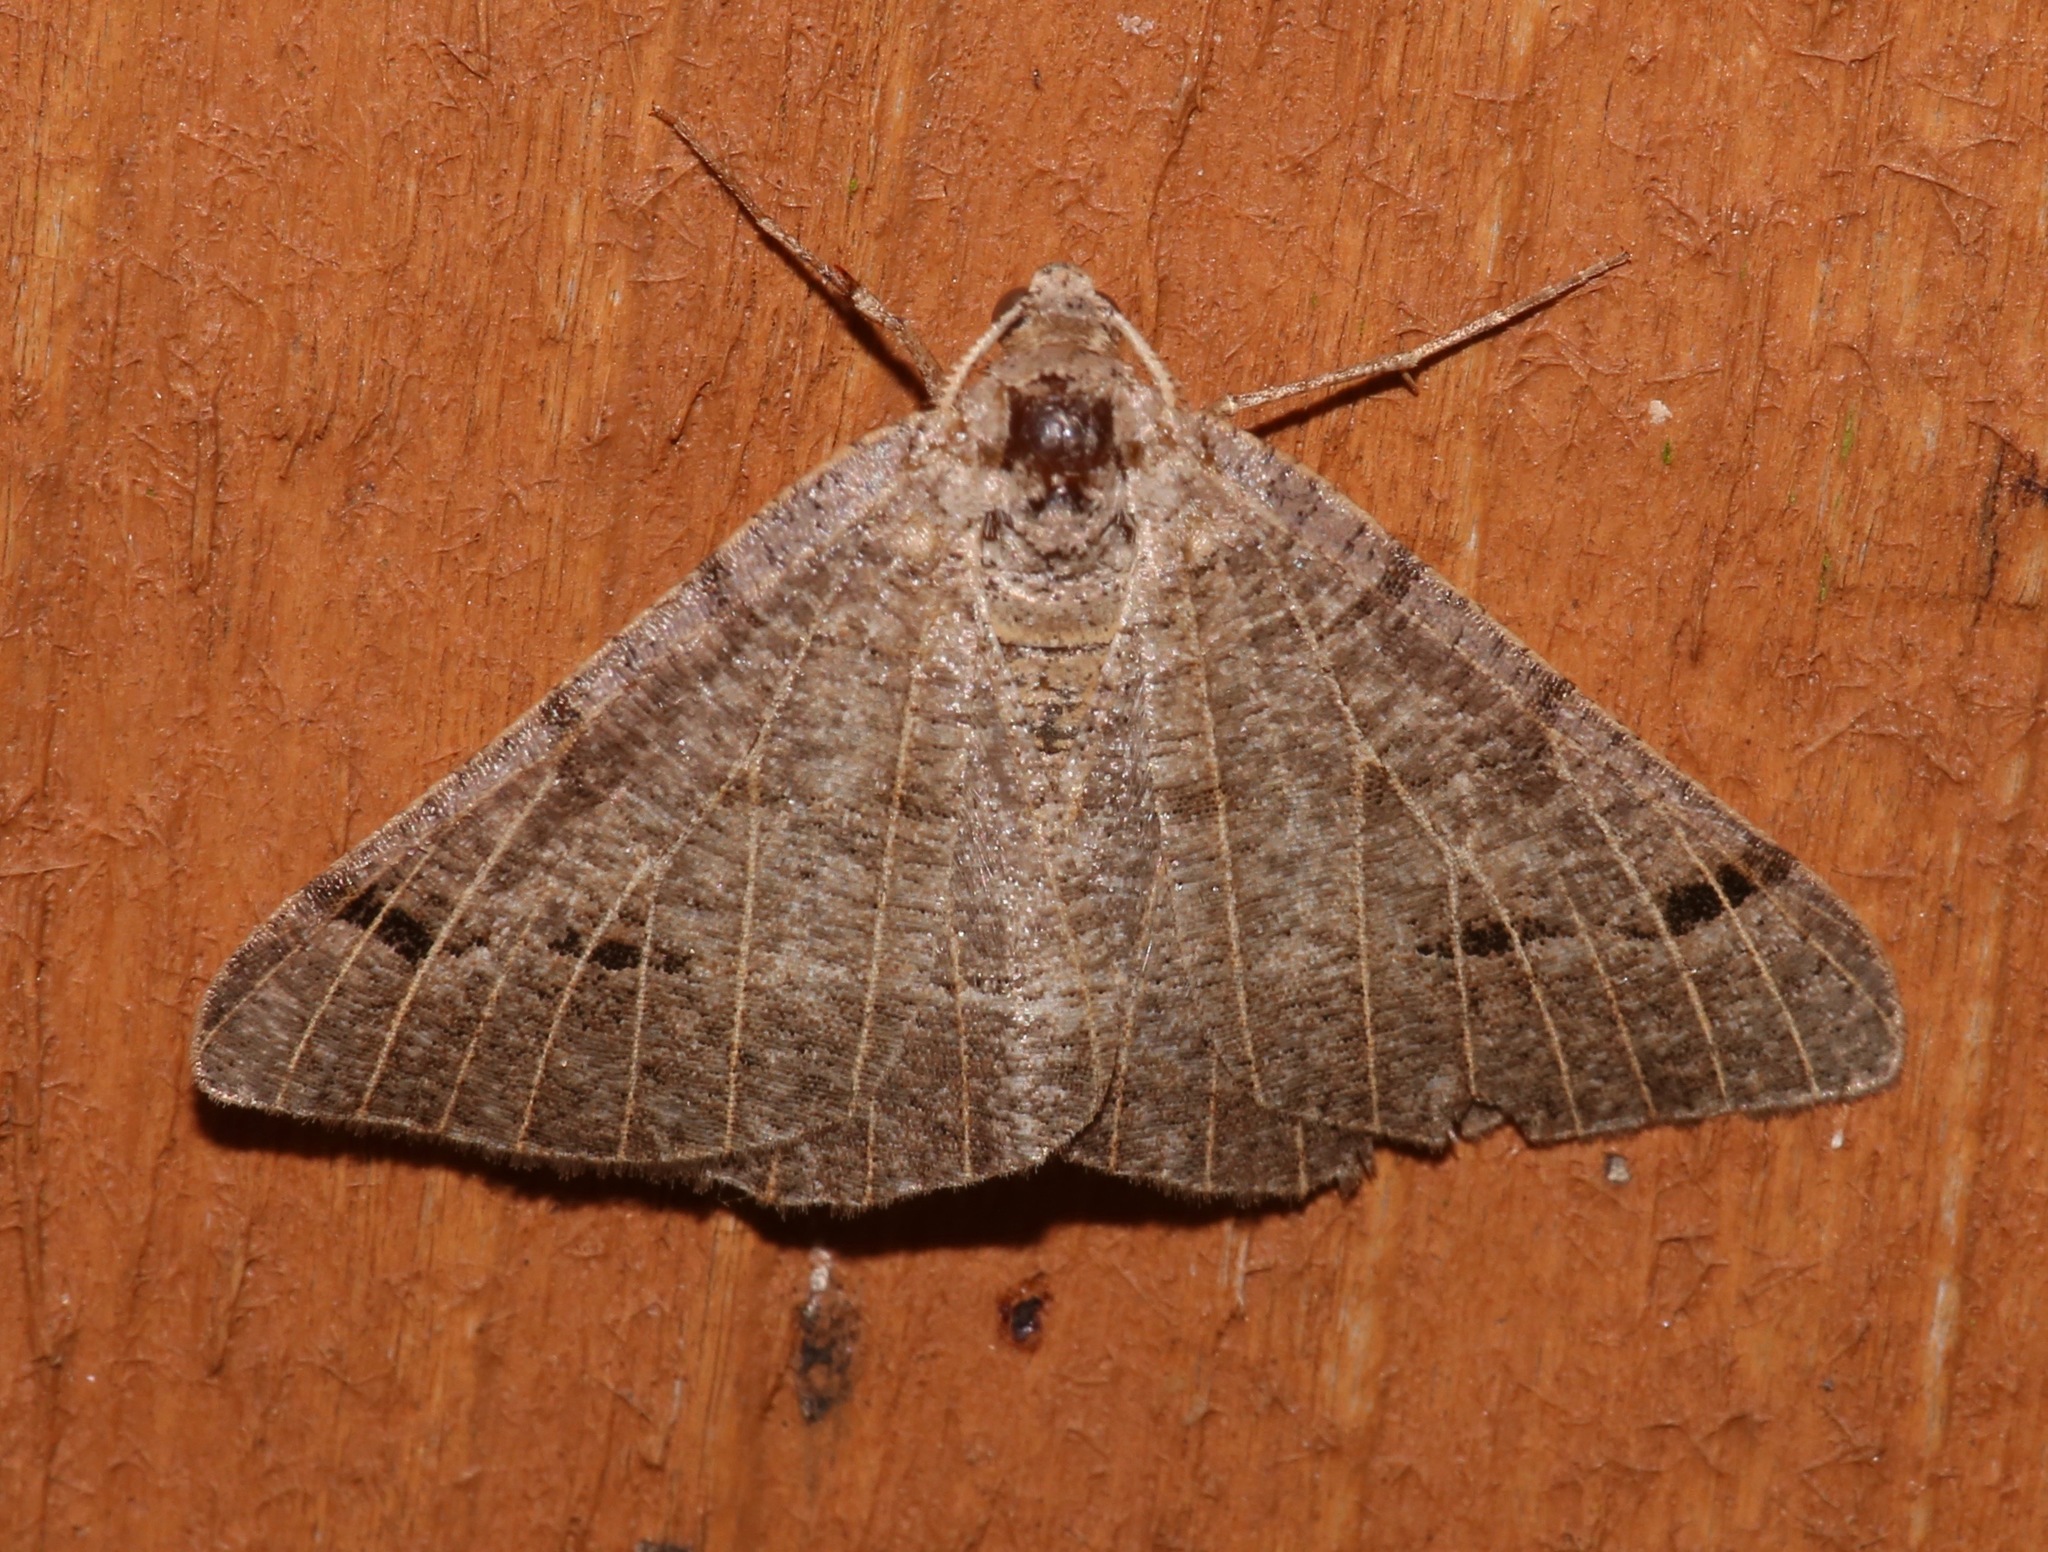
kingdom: Animalia
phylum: Arthropoda
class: Insecta
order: Lepidoptera
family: Geometridae
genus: Isturgia
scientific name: Isturgia dislocaria
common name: Pale-viened enconista
